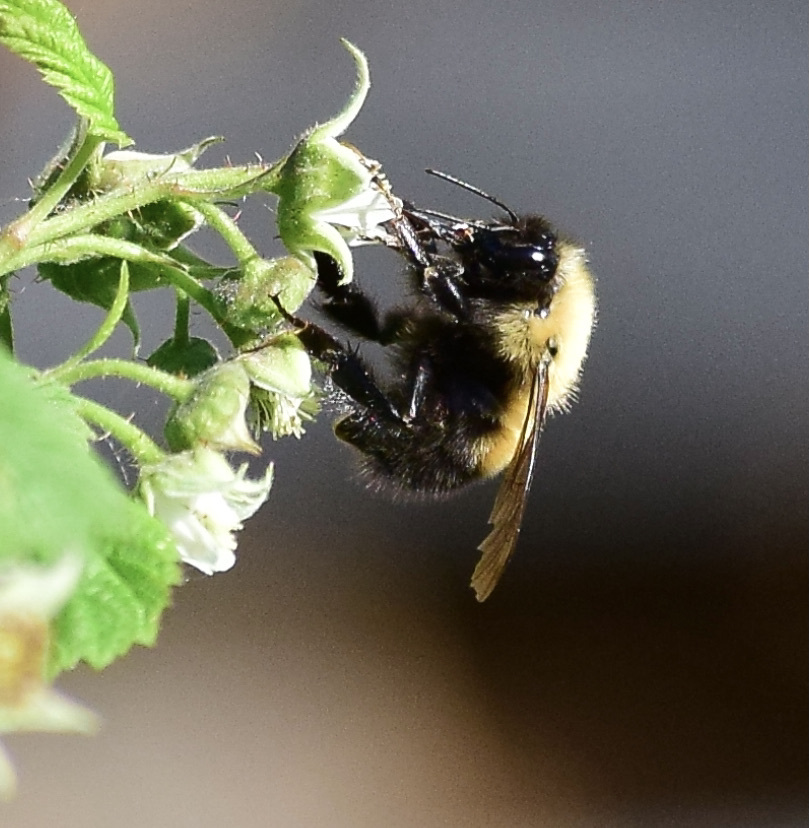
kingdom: Animalia
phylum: Arthropoda
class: Insecta
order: Hymenoptera
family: Apidae
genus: Bombus
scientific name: Bombus perplexus
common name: Confusing bumble bee
